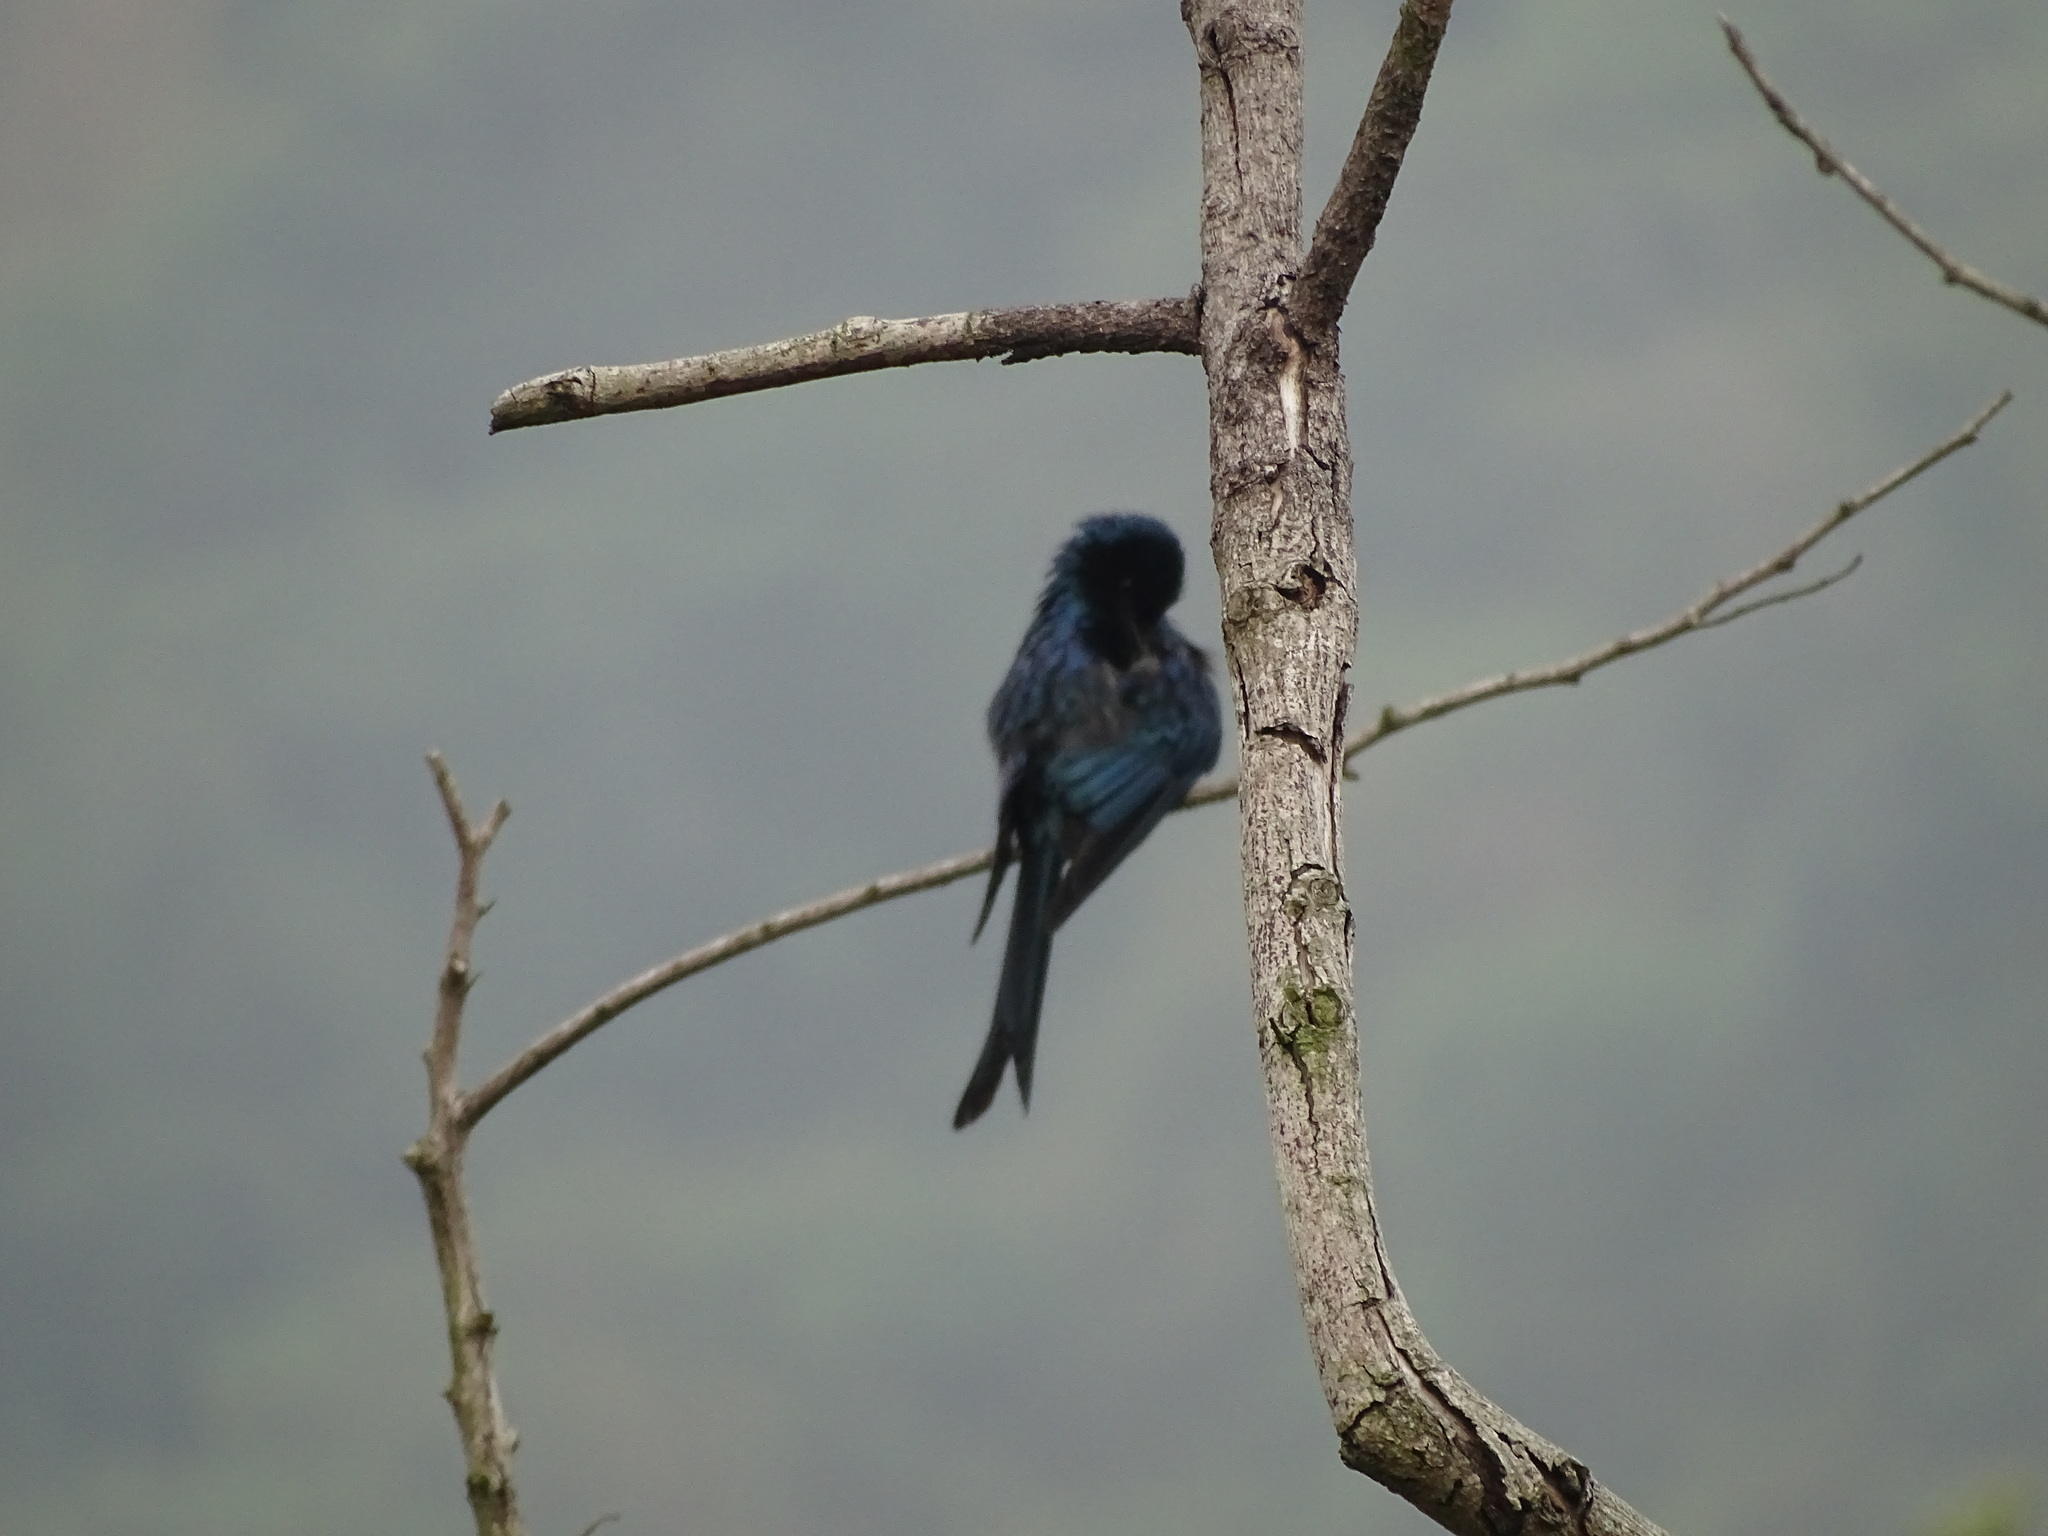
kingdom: Animalia
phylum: Chordata
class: Aves
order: Passeriformes
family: Dicruridae
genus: Dicrurus
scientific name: Dicrurus aeneus
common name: Bronzed drongo
